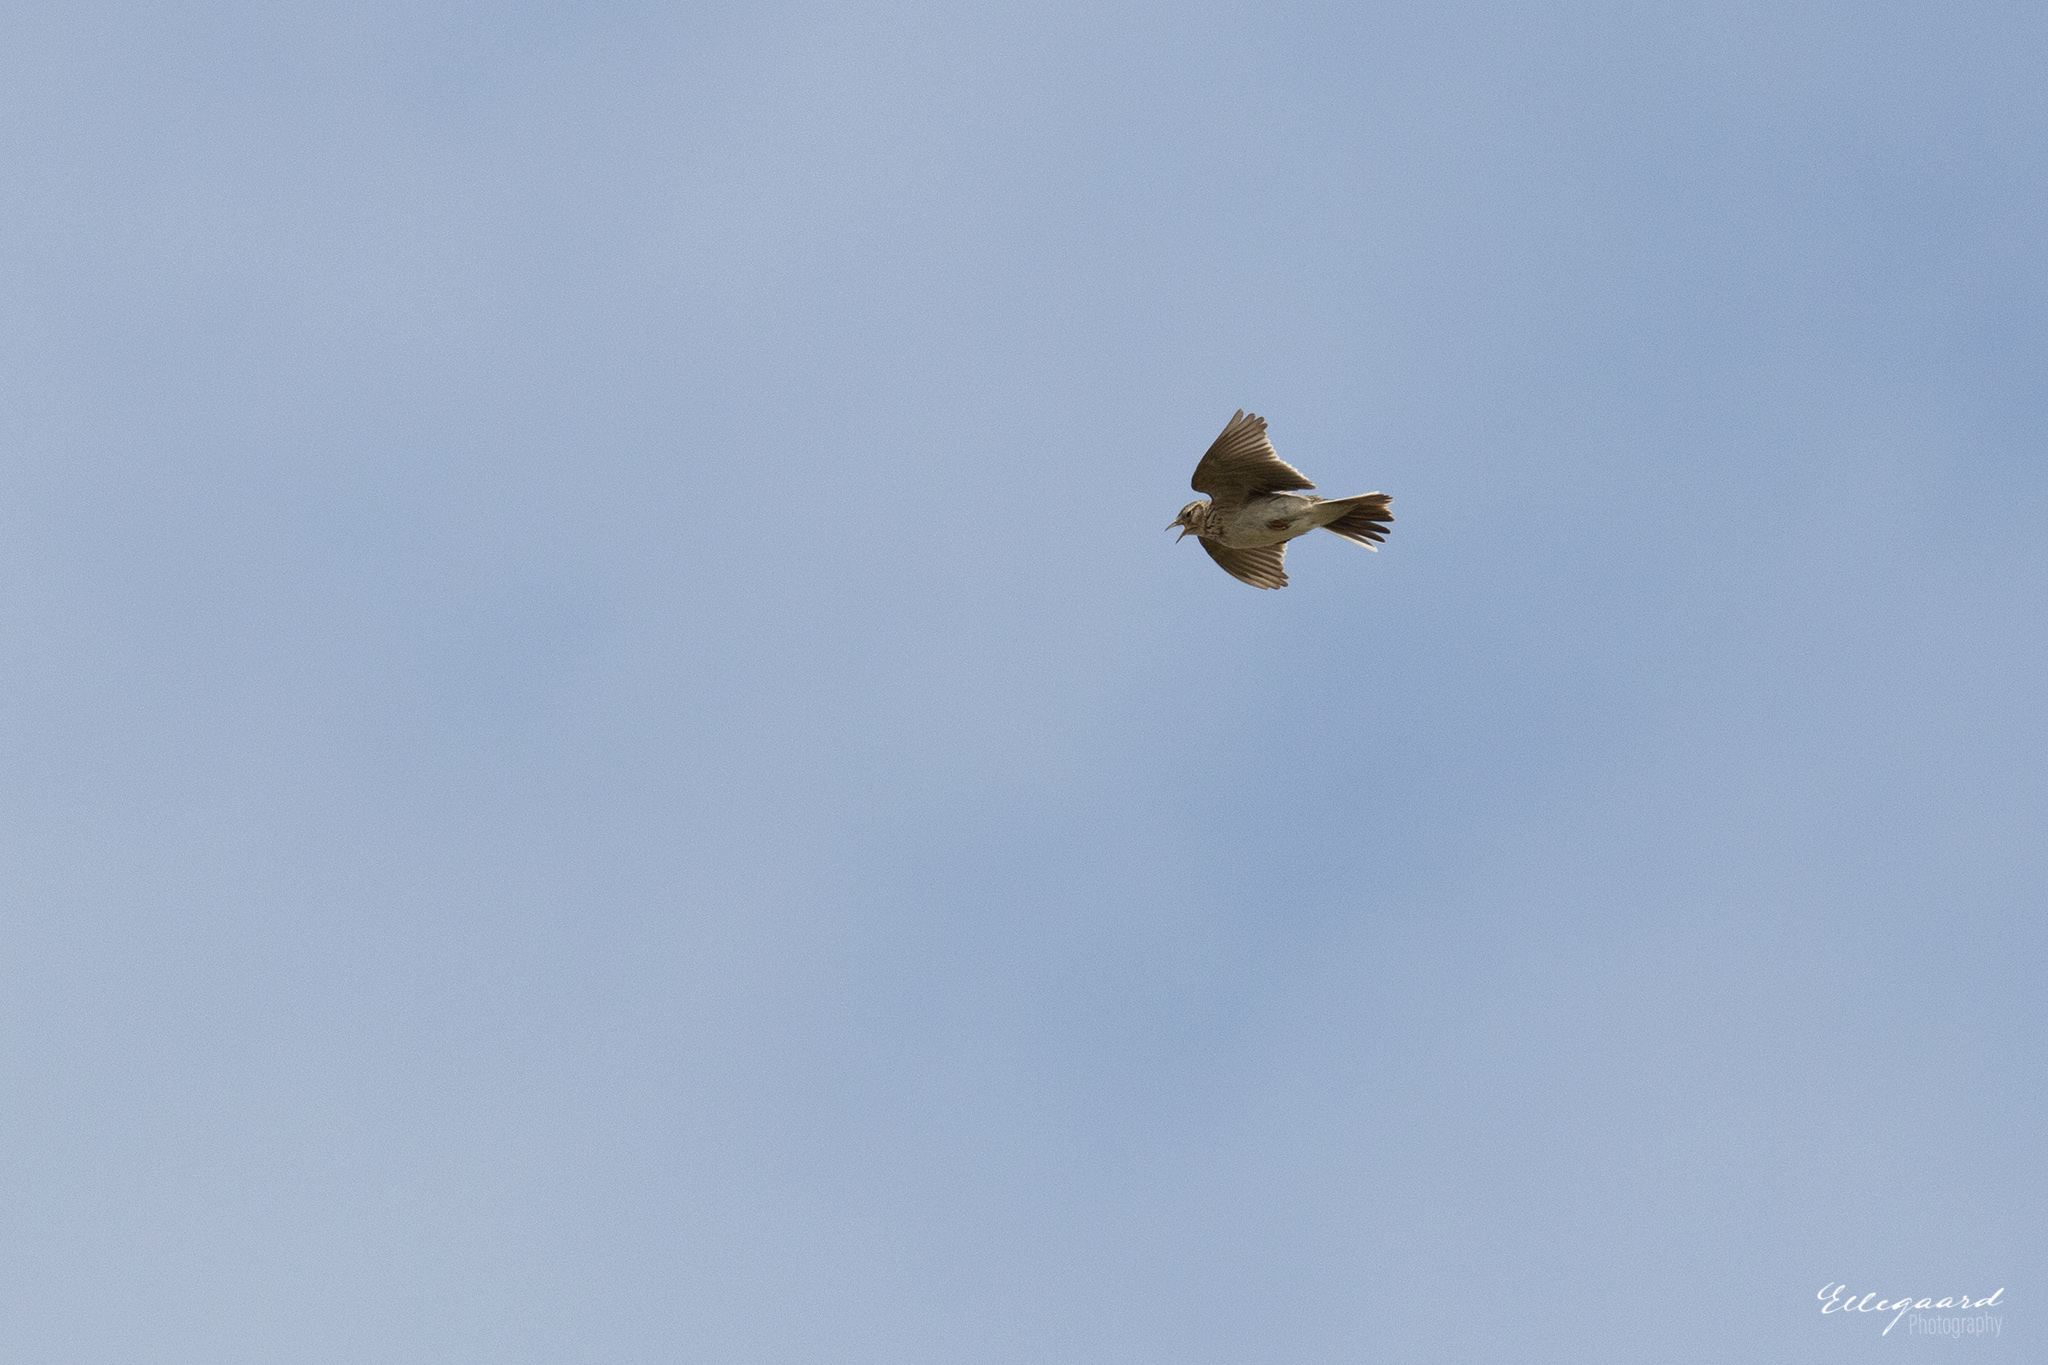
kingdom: Animalia
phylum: Chordata
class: Aves
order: Passeriformes
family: Alaudidae
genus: Alauda
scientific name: Alauda arvensis
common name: Eurasian skylark
